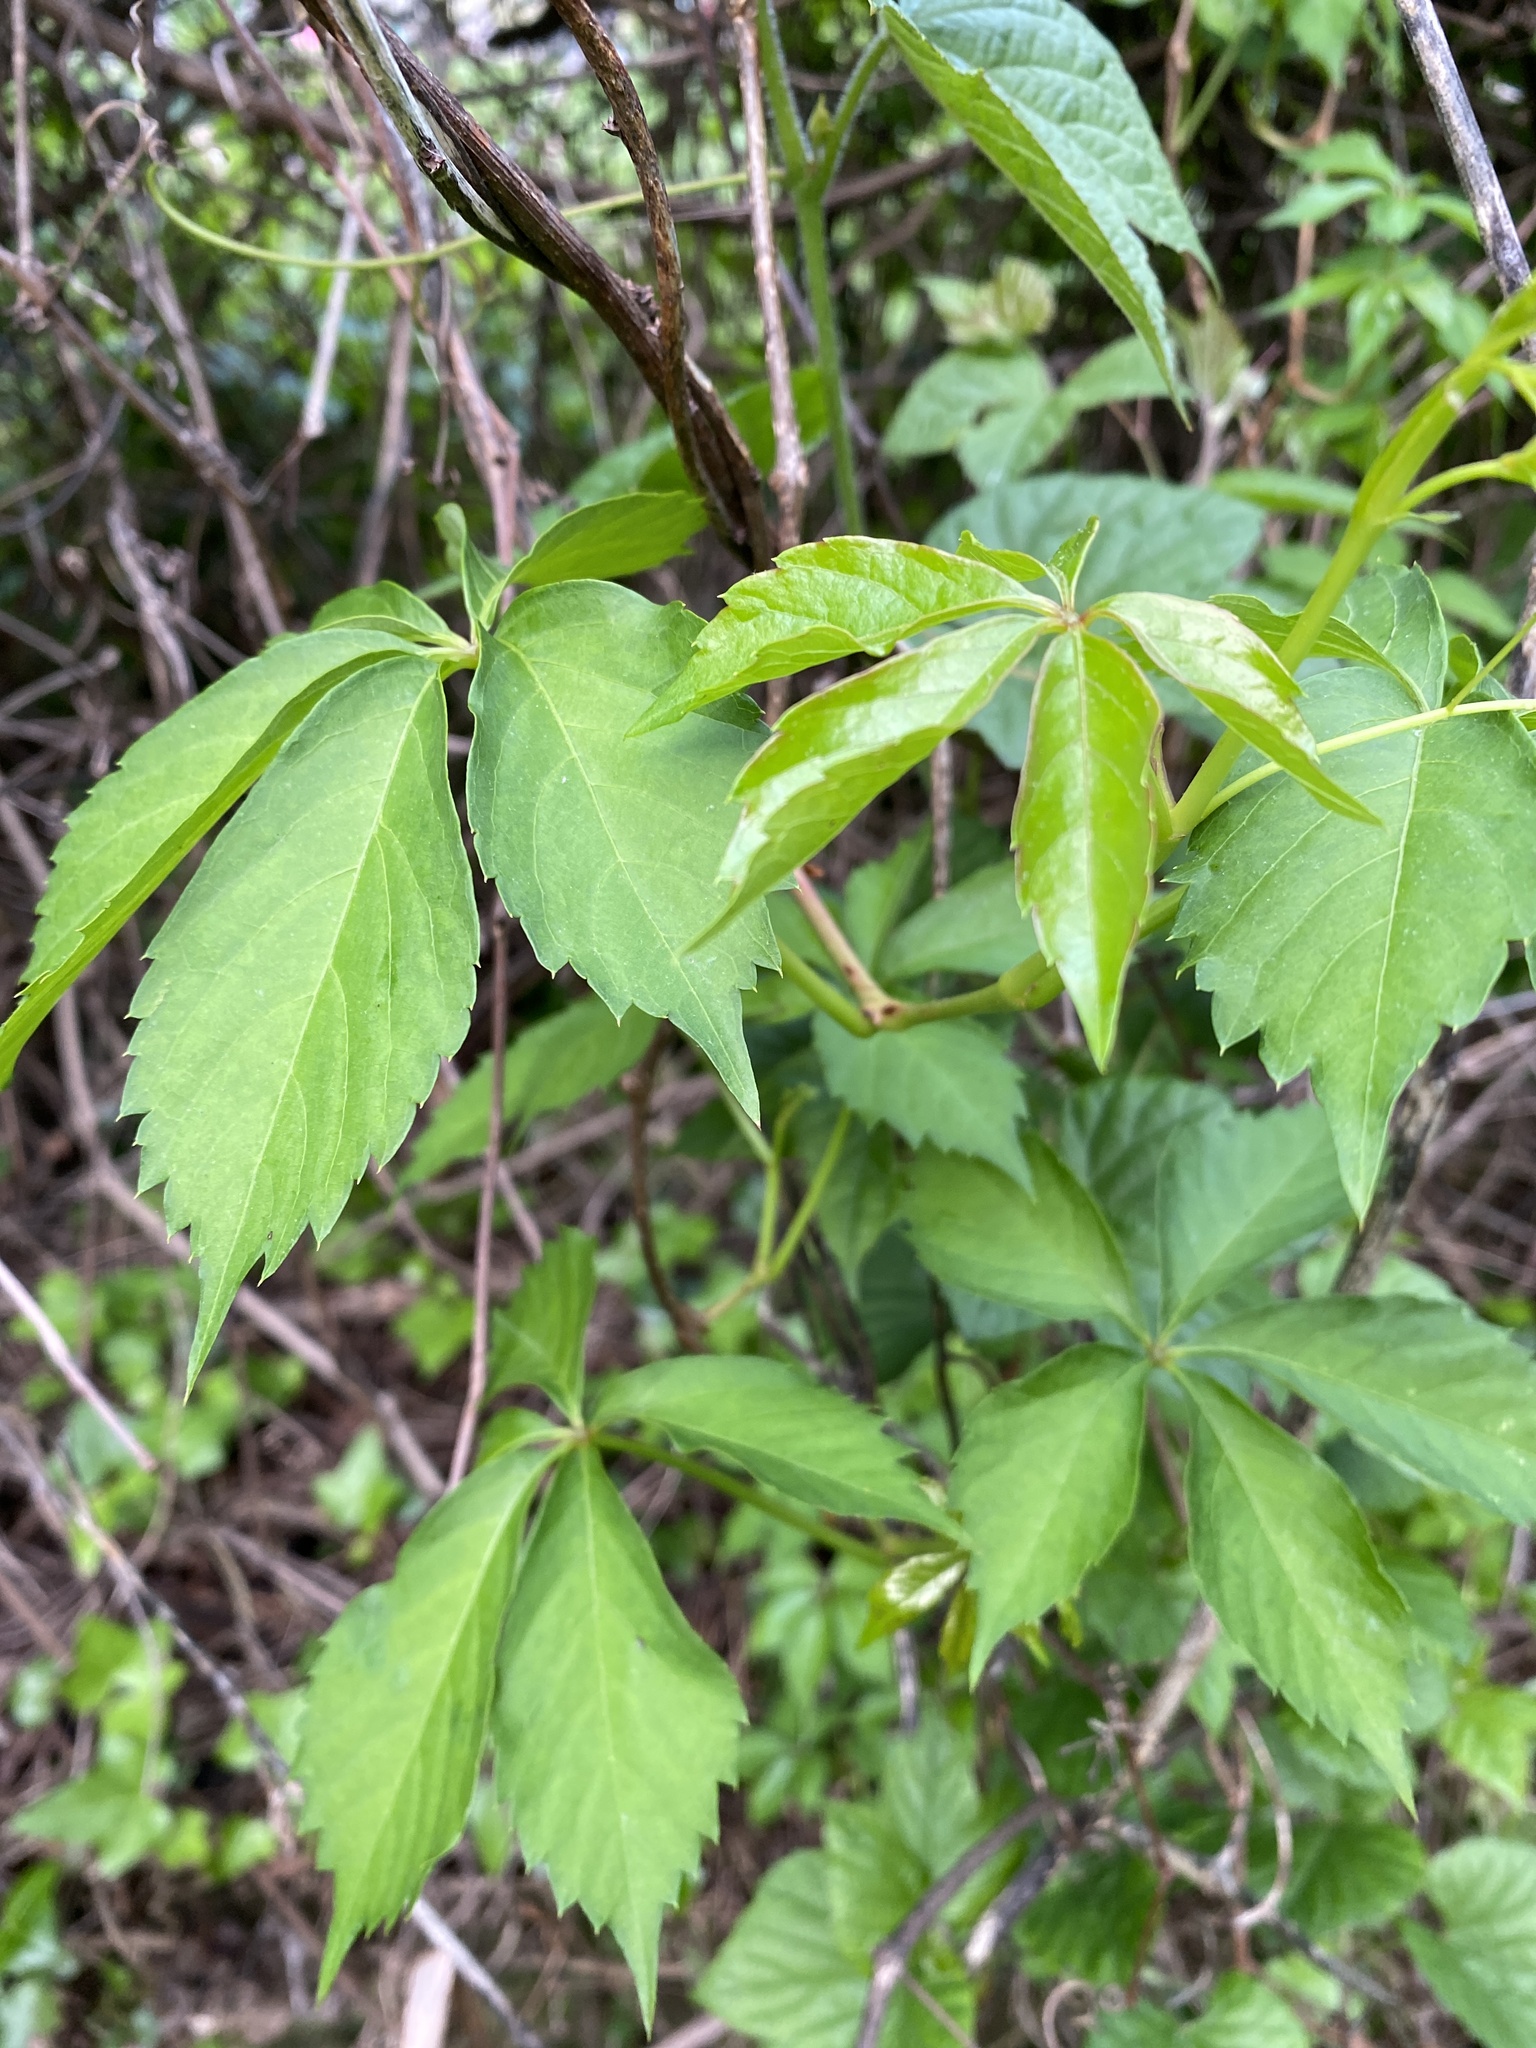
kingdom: Plantae
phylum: Tracheophyta
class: Magnoliopsida
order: Vitales
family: Vitaceae
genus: Parthenocissus
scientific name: Parthenocissus quinquefolia
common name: Virginia-creeper
